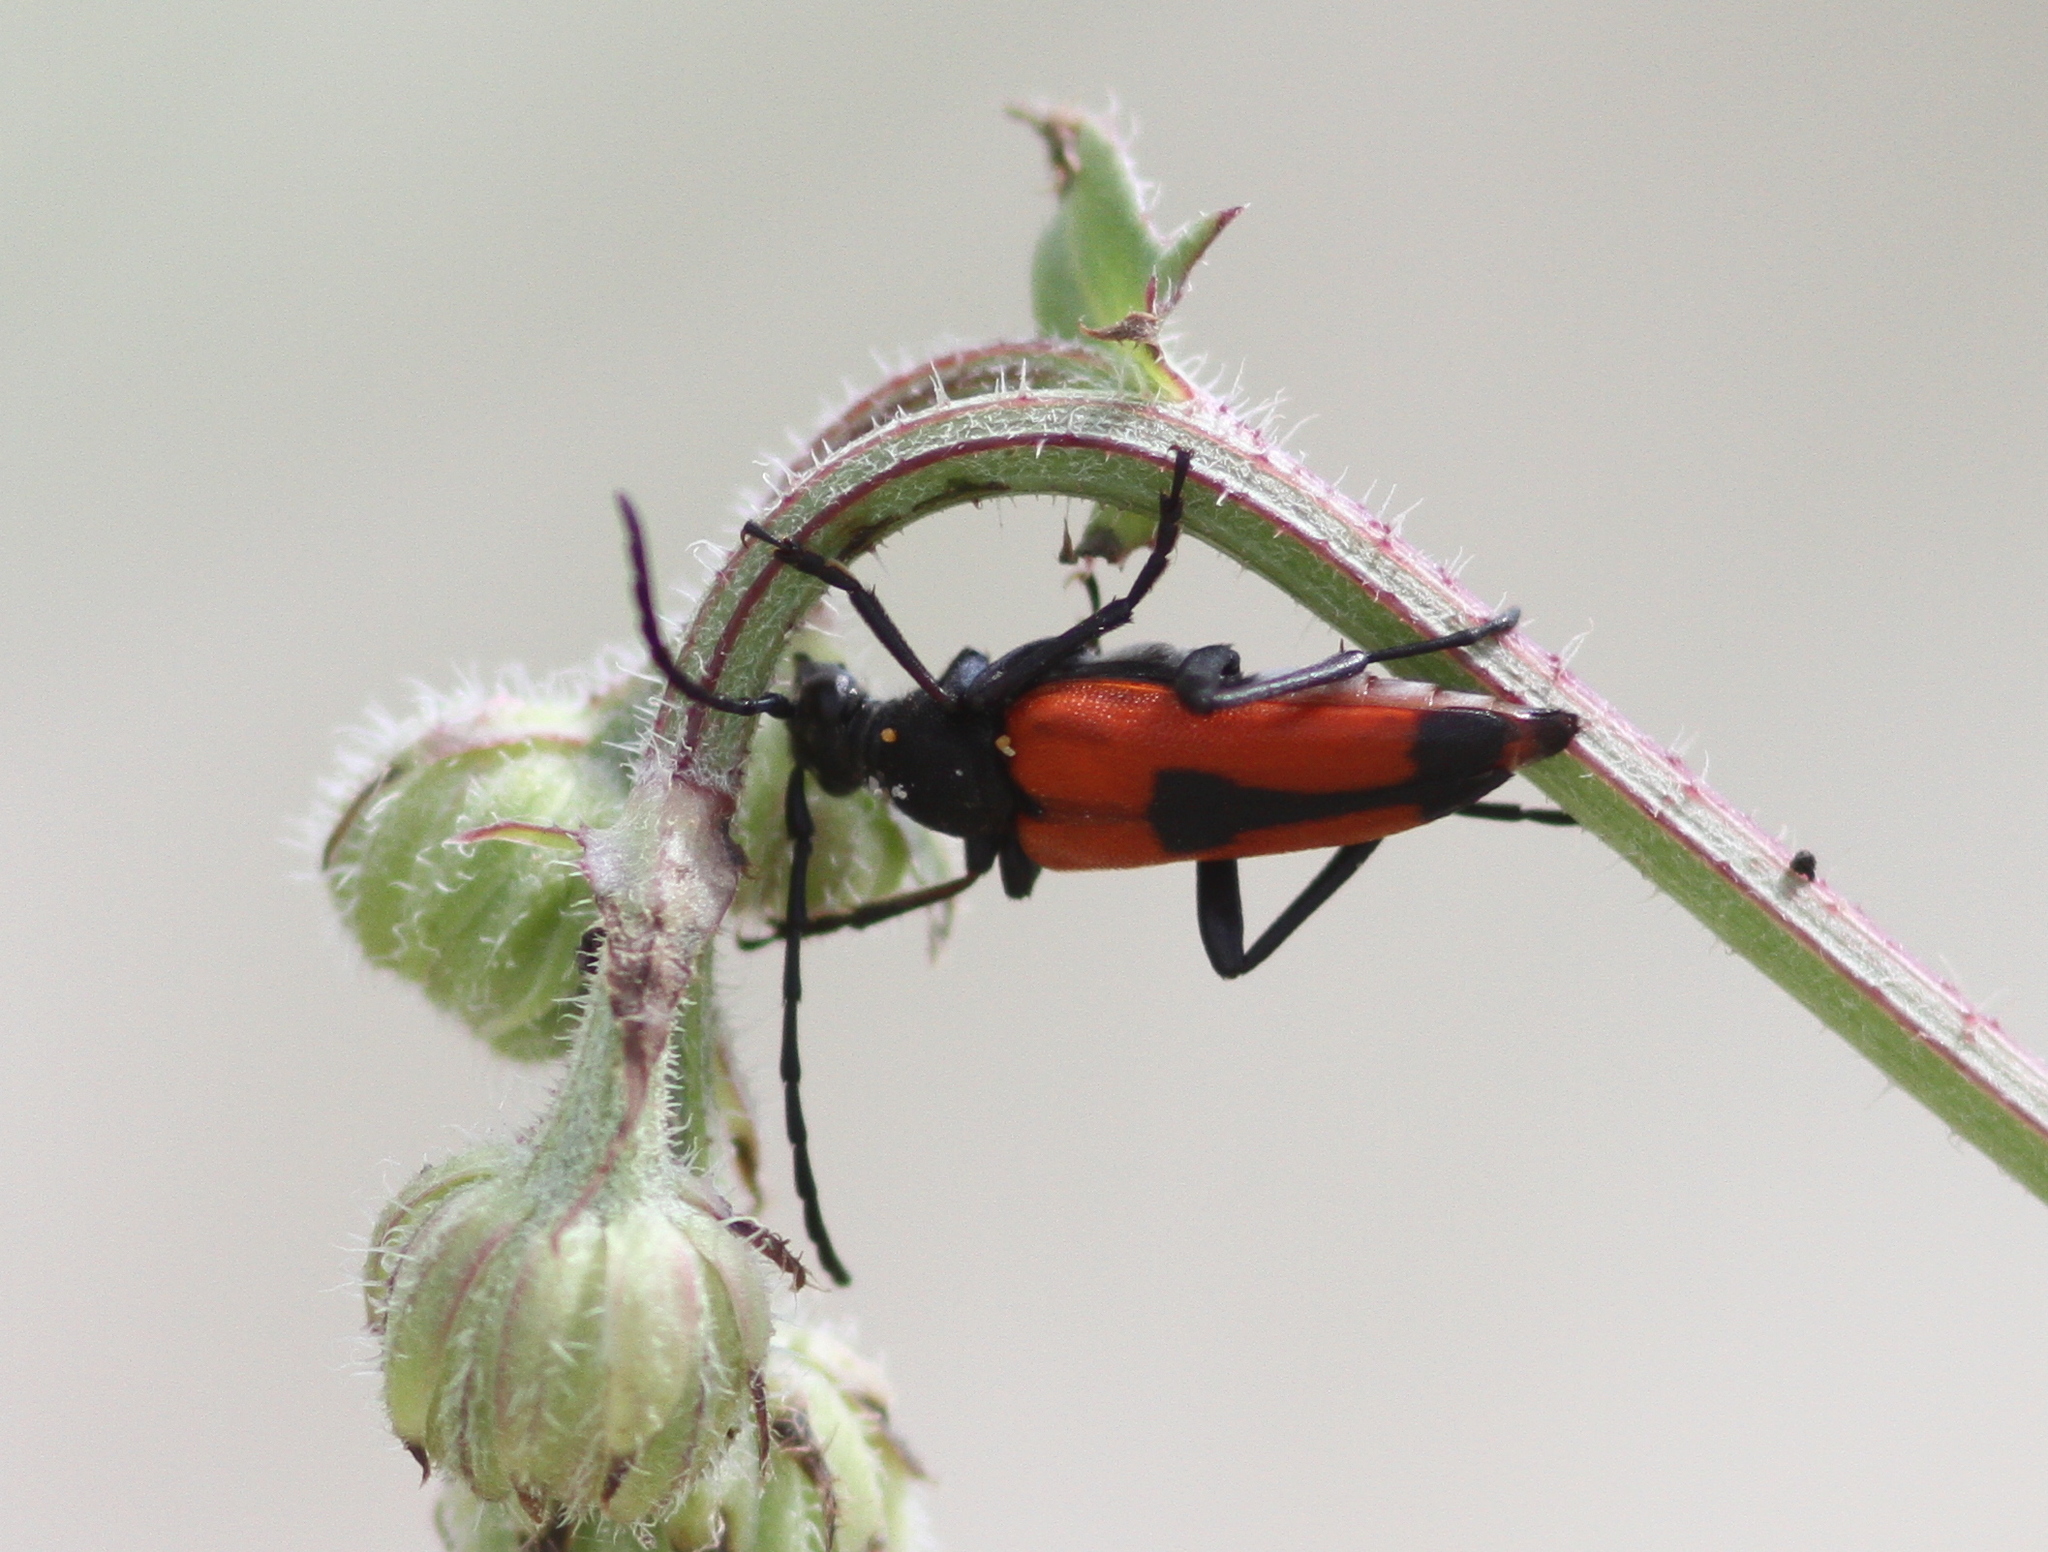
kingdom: Animalia
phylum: Arthropoda
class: Insecta
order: Coleoptera
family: Cerambycidae
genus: Stictoleptura
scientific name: Stictoleptura cordigera
